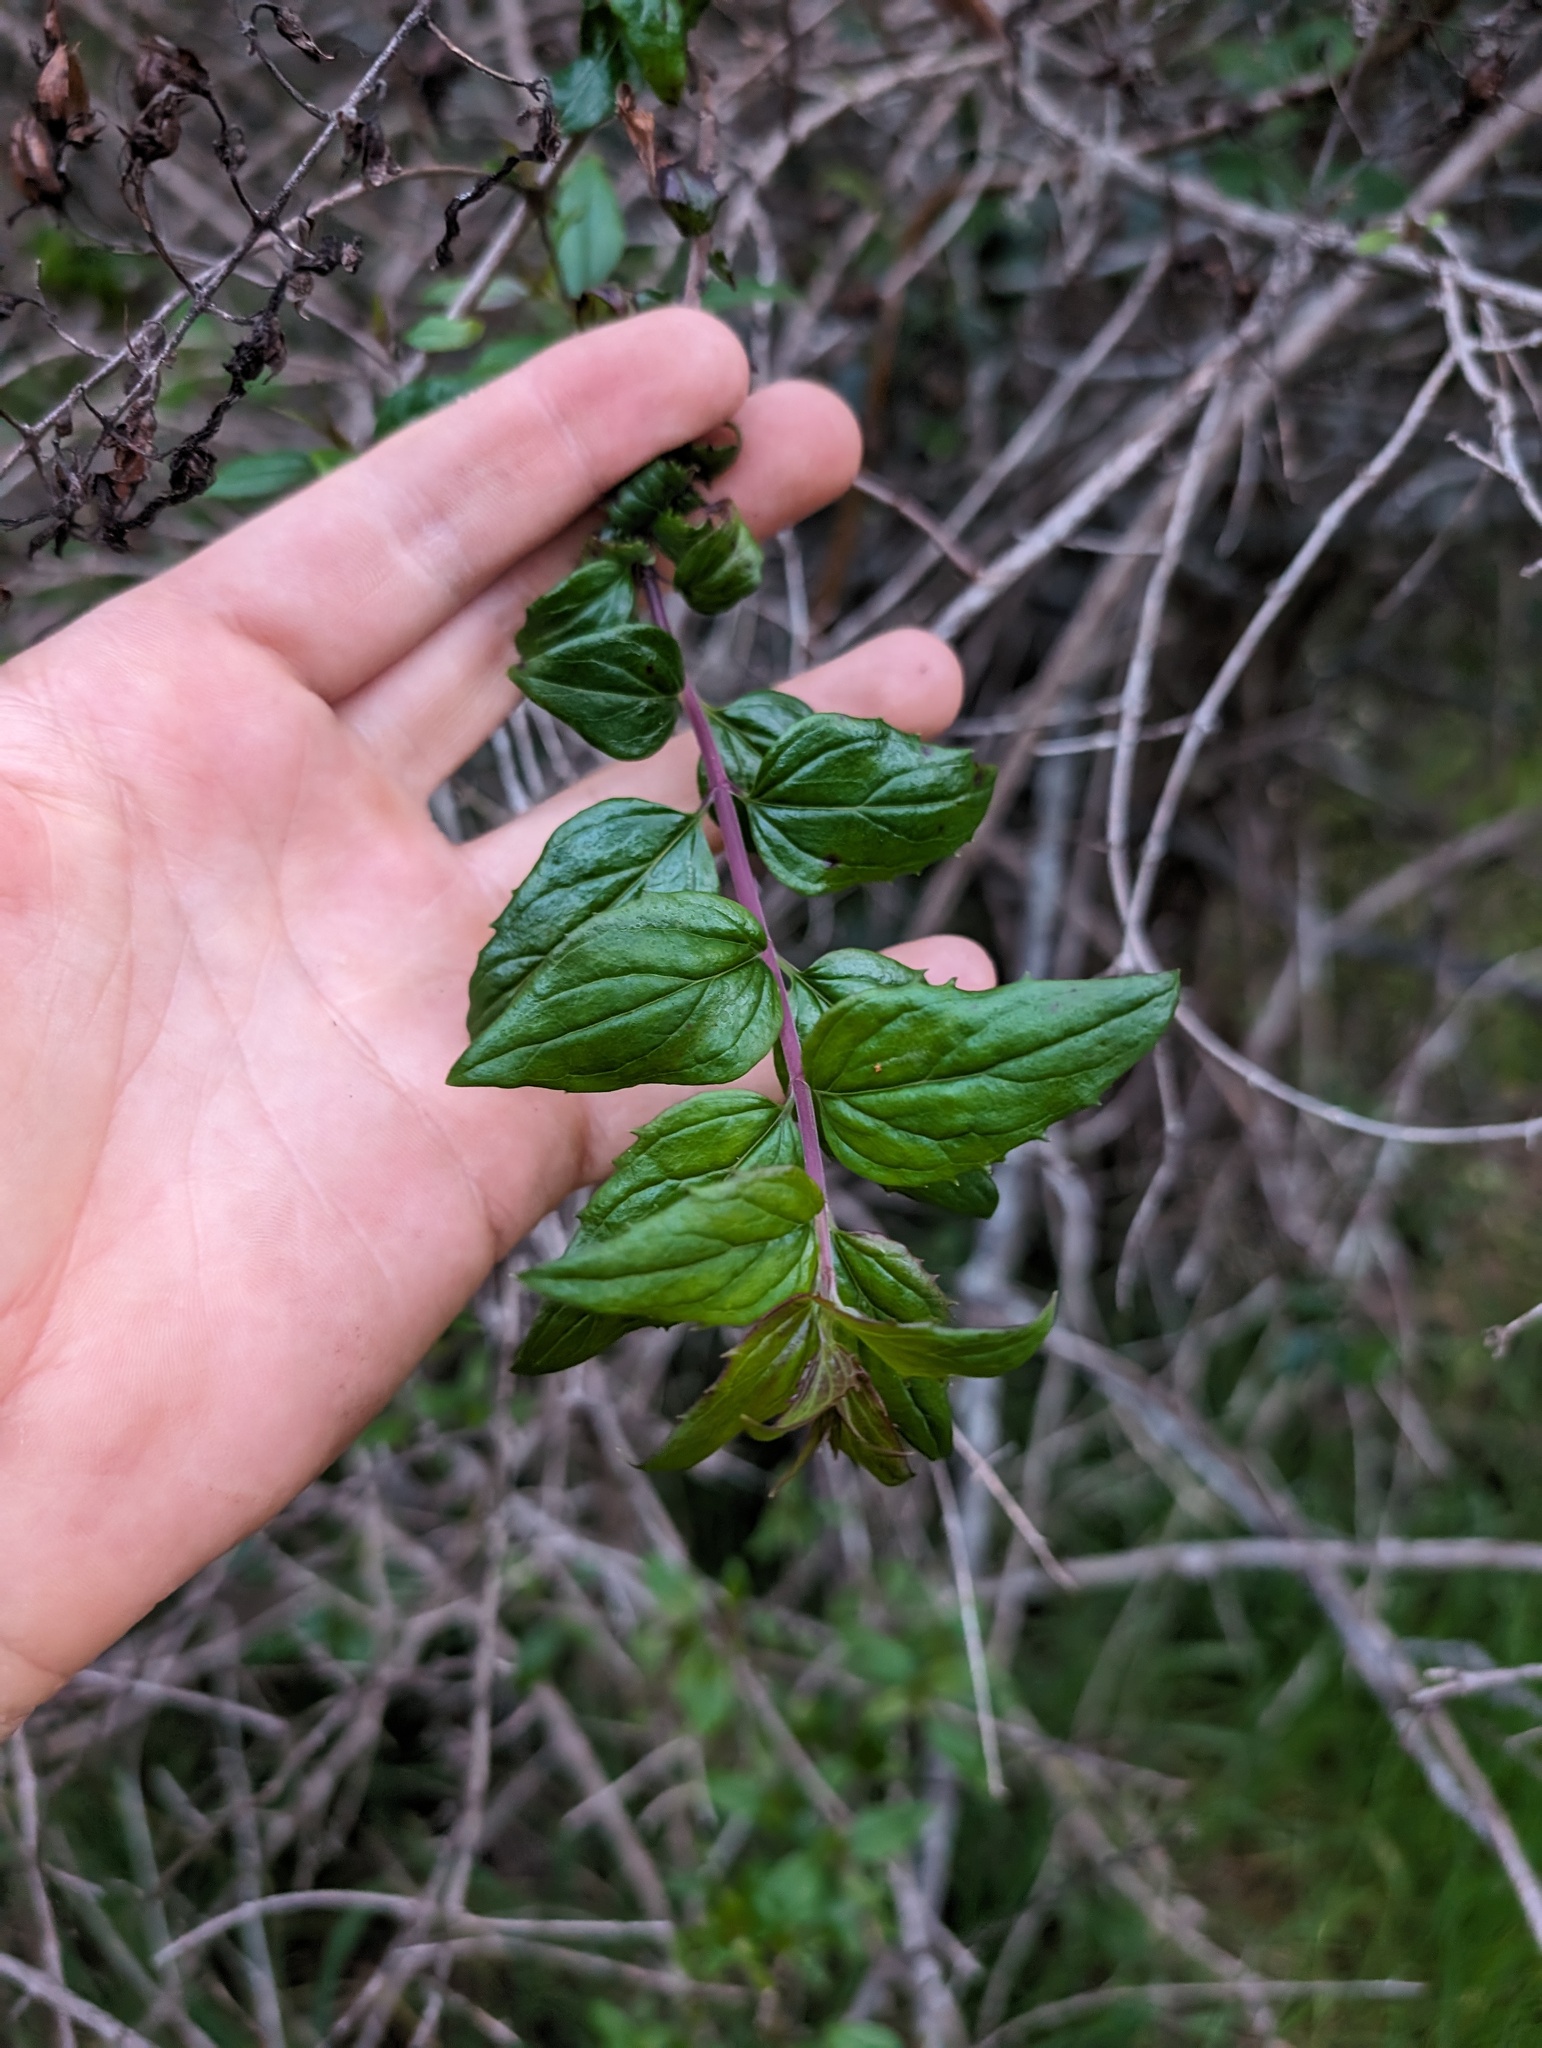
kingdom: Plantae
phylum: Tracheophyta
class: Magnoliopsida
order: Lamiales
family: Plantaginaceae
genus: Keckiella
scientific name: Keckiella cordifolia
